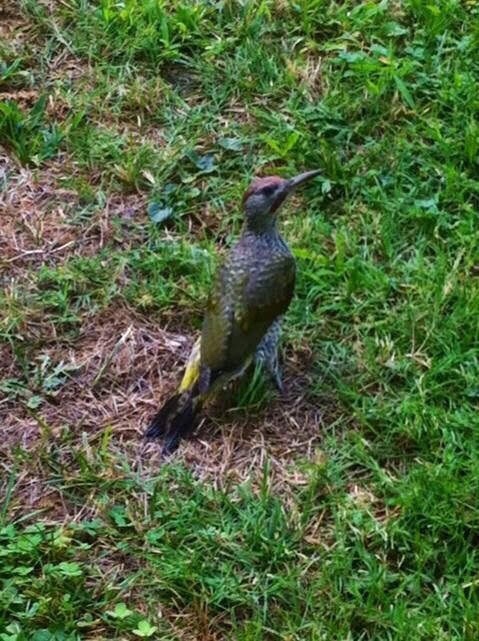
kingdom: Animalia
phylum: Chordata
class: Aves
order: Piciformes
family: Picidae
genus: Picus
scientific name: Picus sharpei
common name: Iberian green woodpecker
